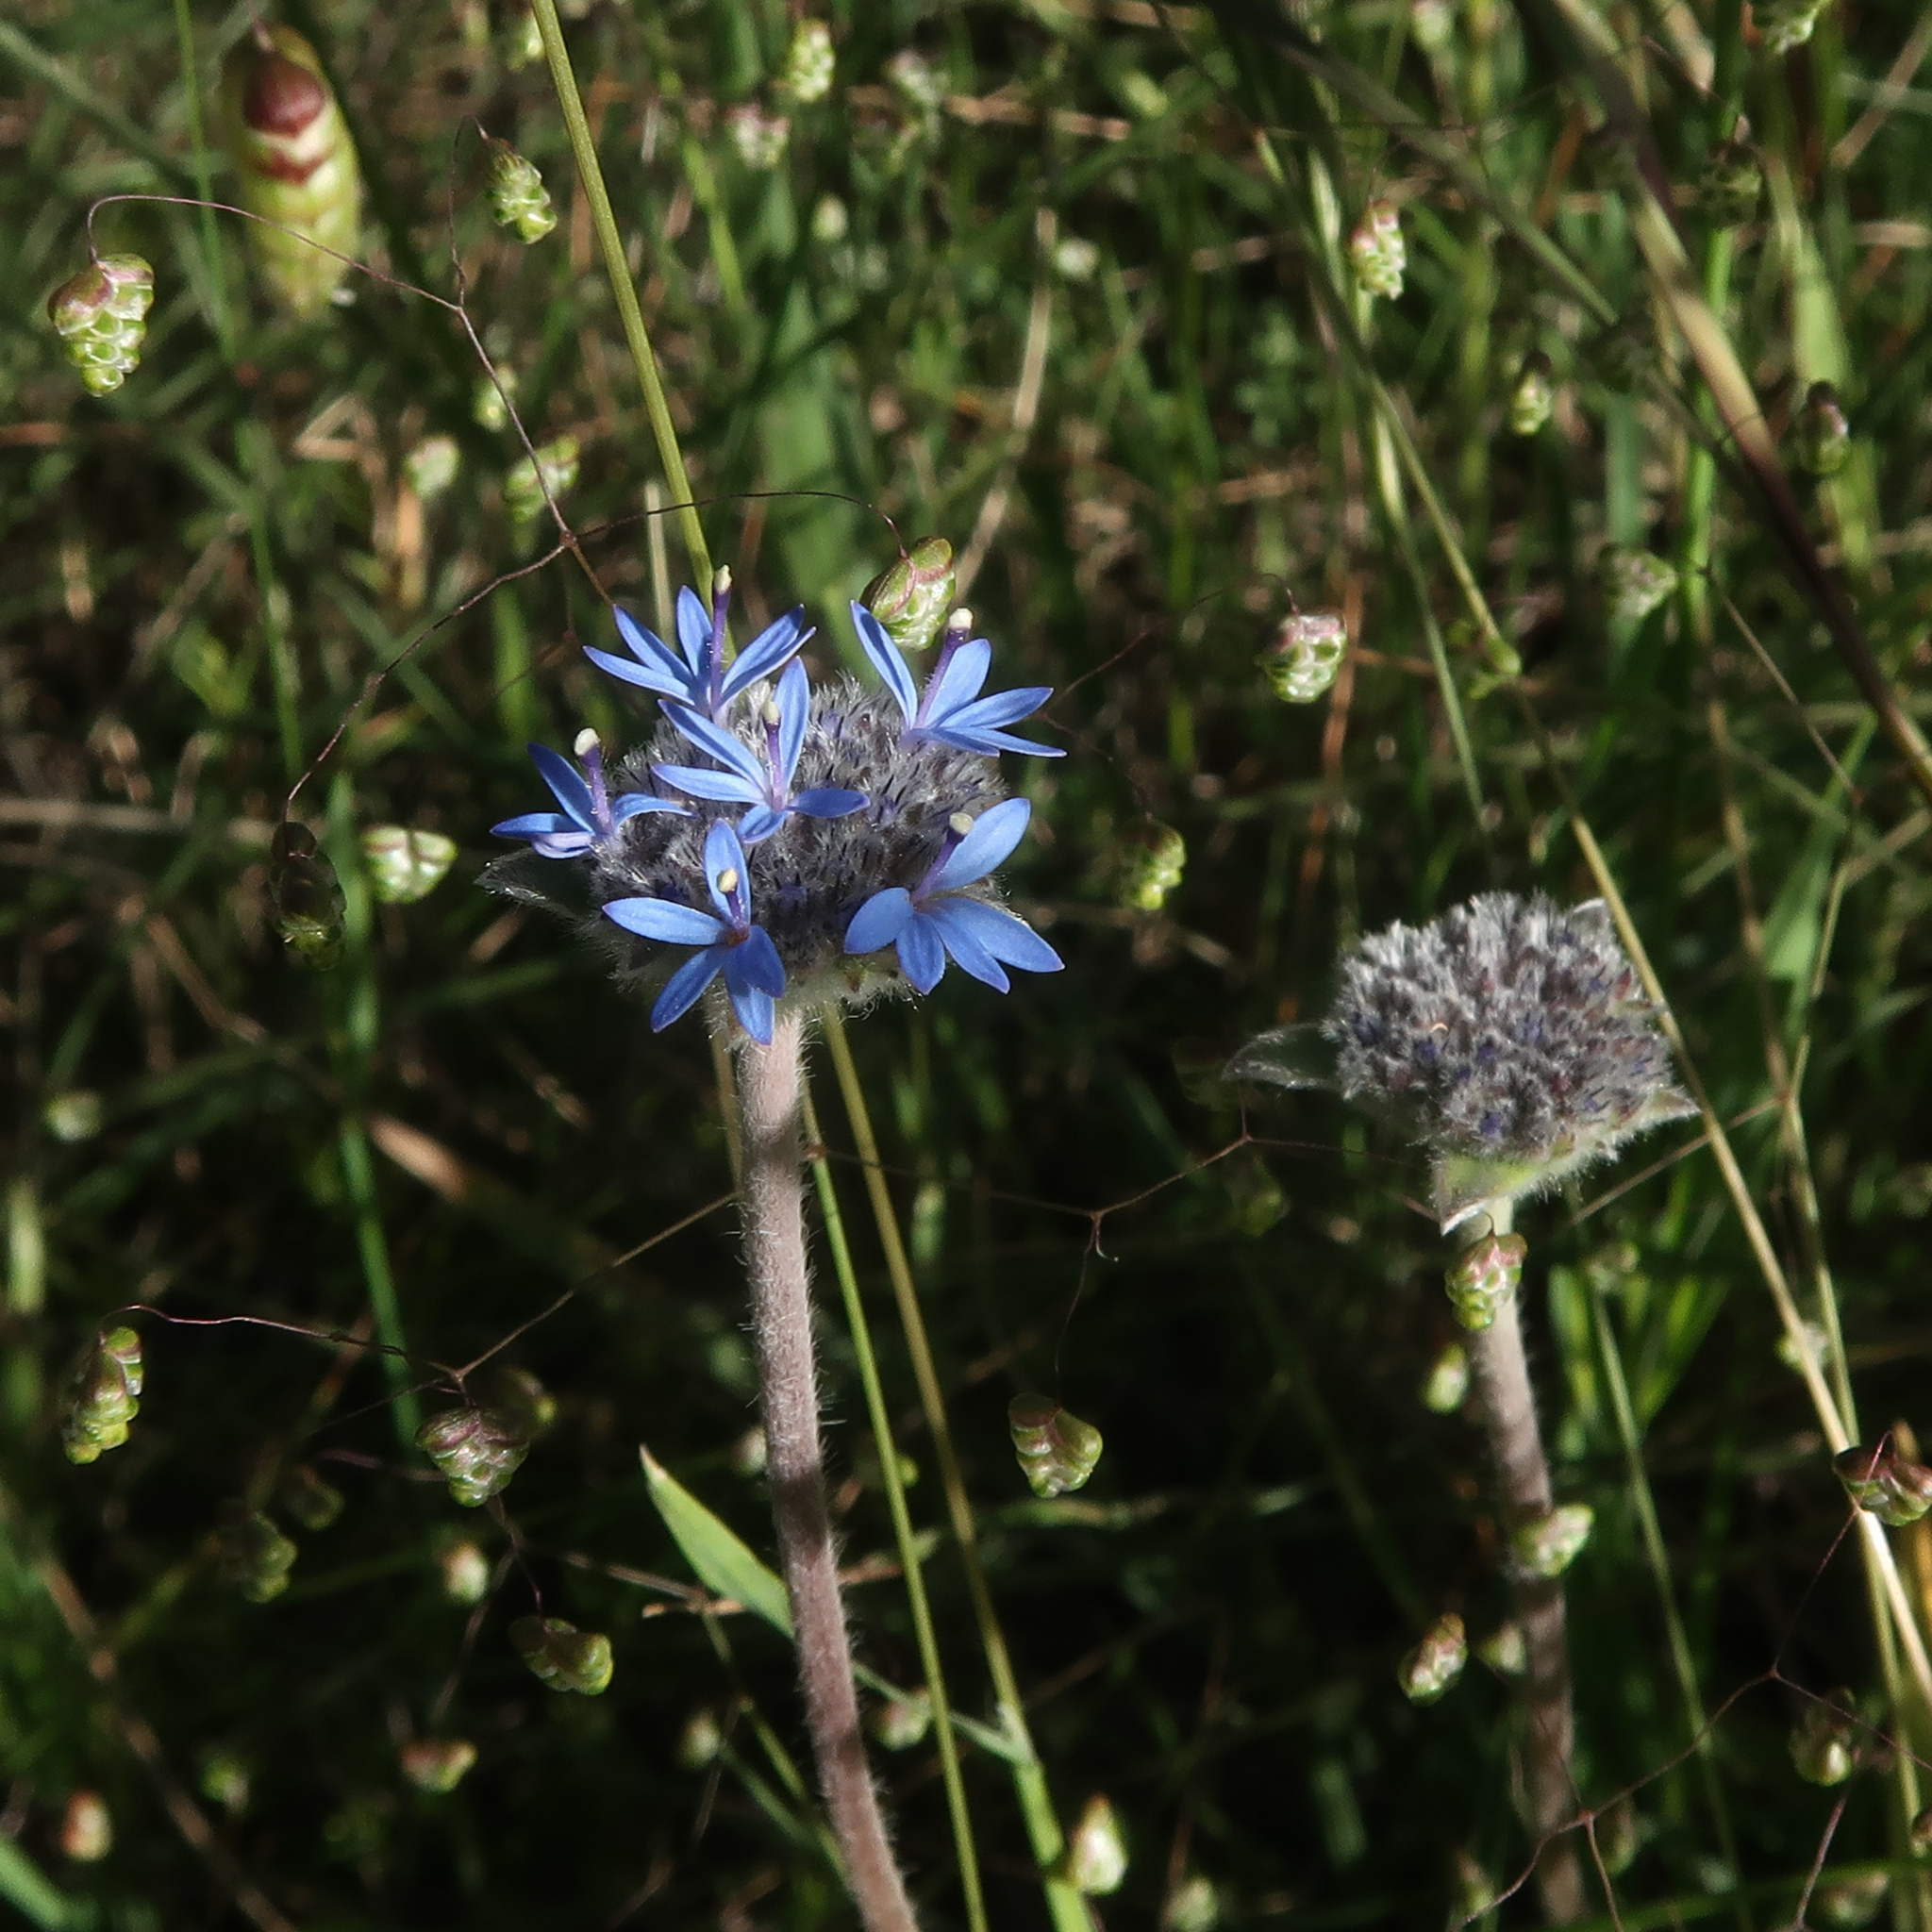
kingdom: Plantae
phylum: Tracheophyta
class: Magnoliopsida
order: Asterales
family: Goodeniaceae
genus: Brunonia
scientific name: Brunonia australis
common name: Blue pincushion
